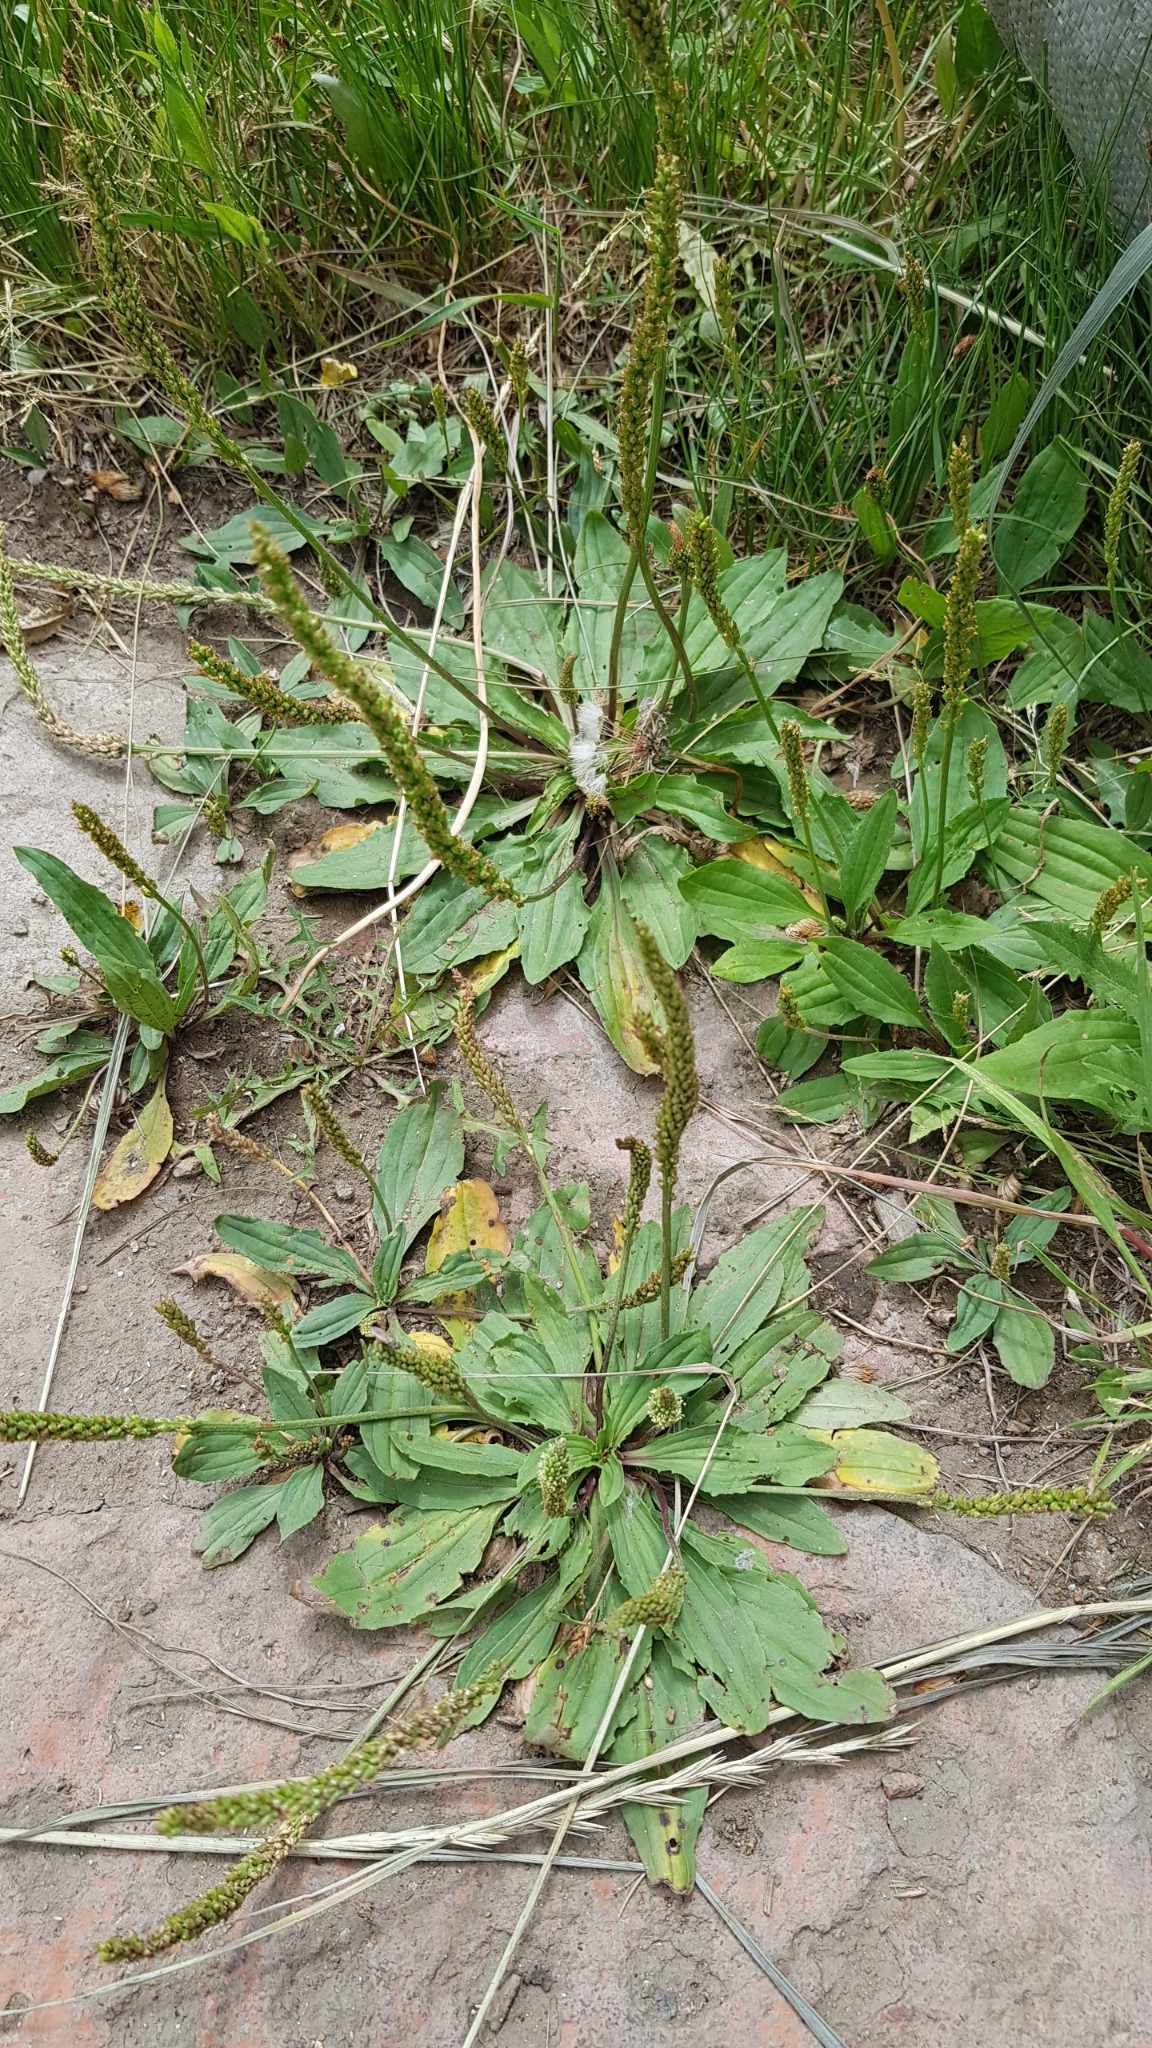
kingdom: Plantae
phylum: Tracheophyta
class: Magnoliopsida
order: Lamiales
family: Plantaginaceae
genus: Plantago
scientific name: Plantago depressa
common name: Depressed plantain
